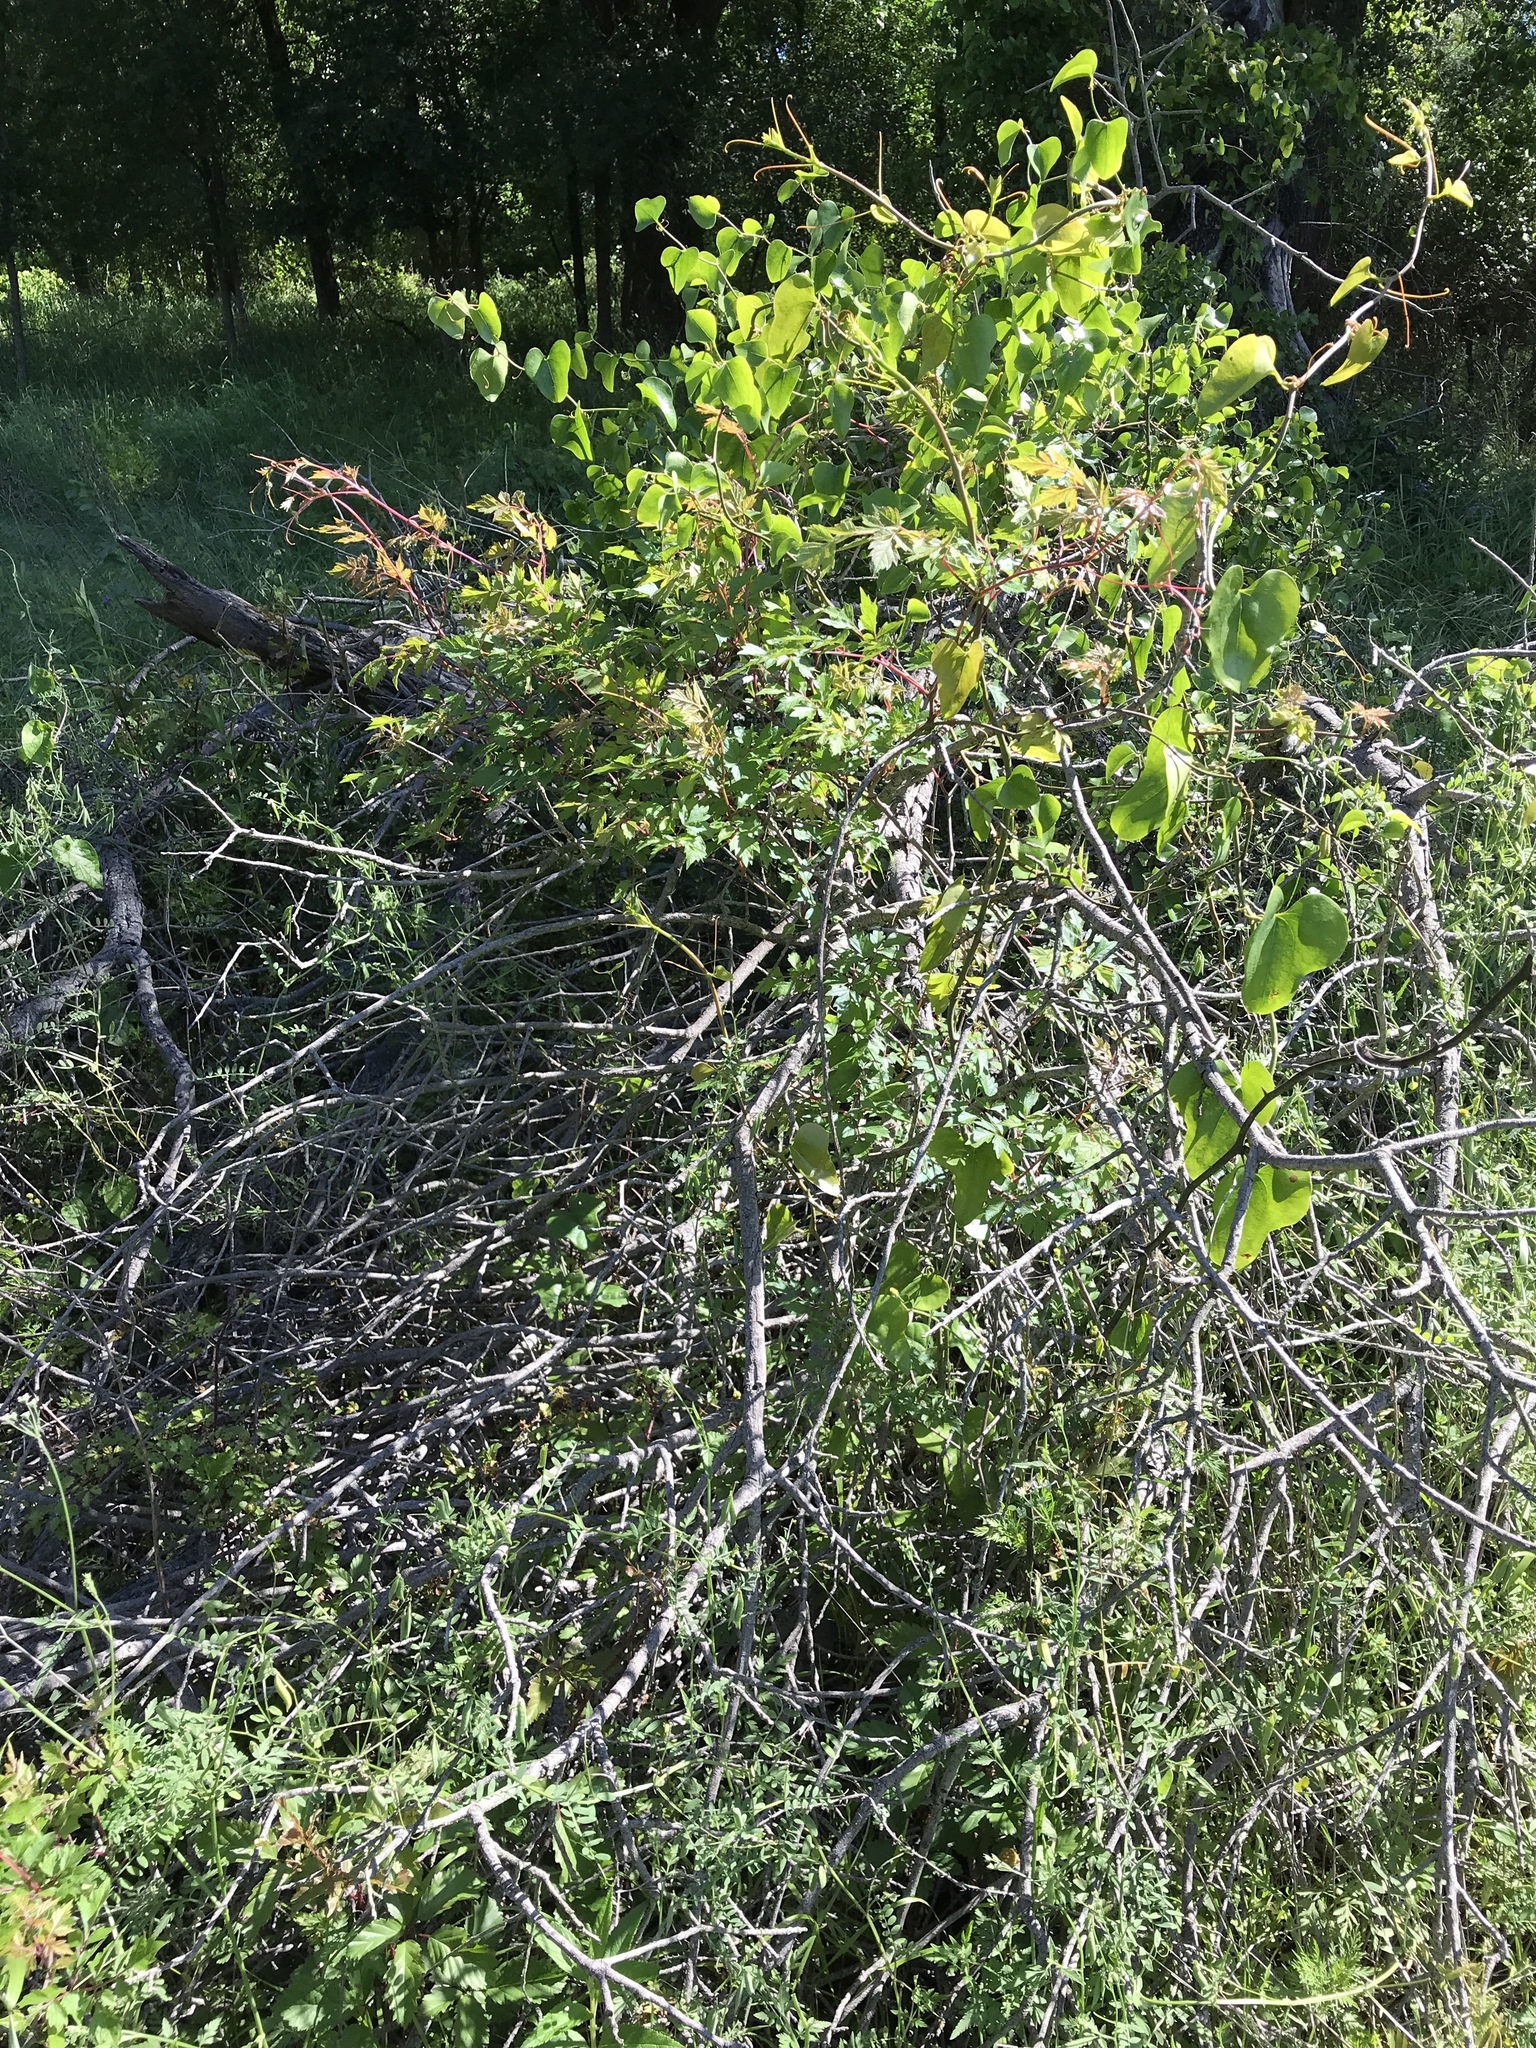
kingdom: Plantae
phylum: Tracheophyta
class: Magnoliopsida
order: Vitales
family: Vitaceae
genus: Nekemias
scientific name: Nekemias arborea
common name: Peppervine
